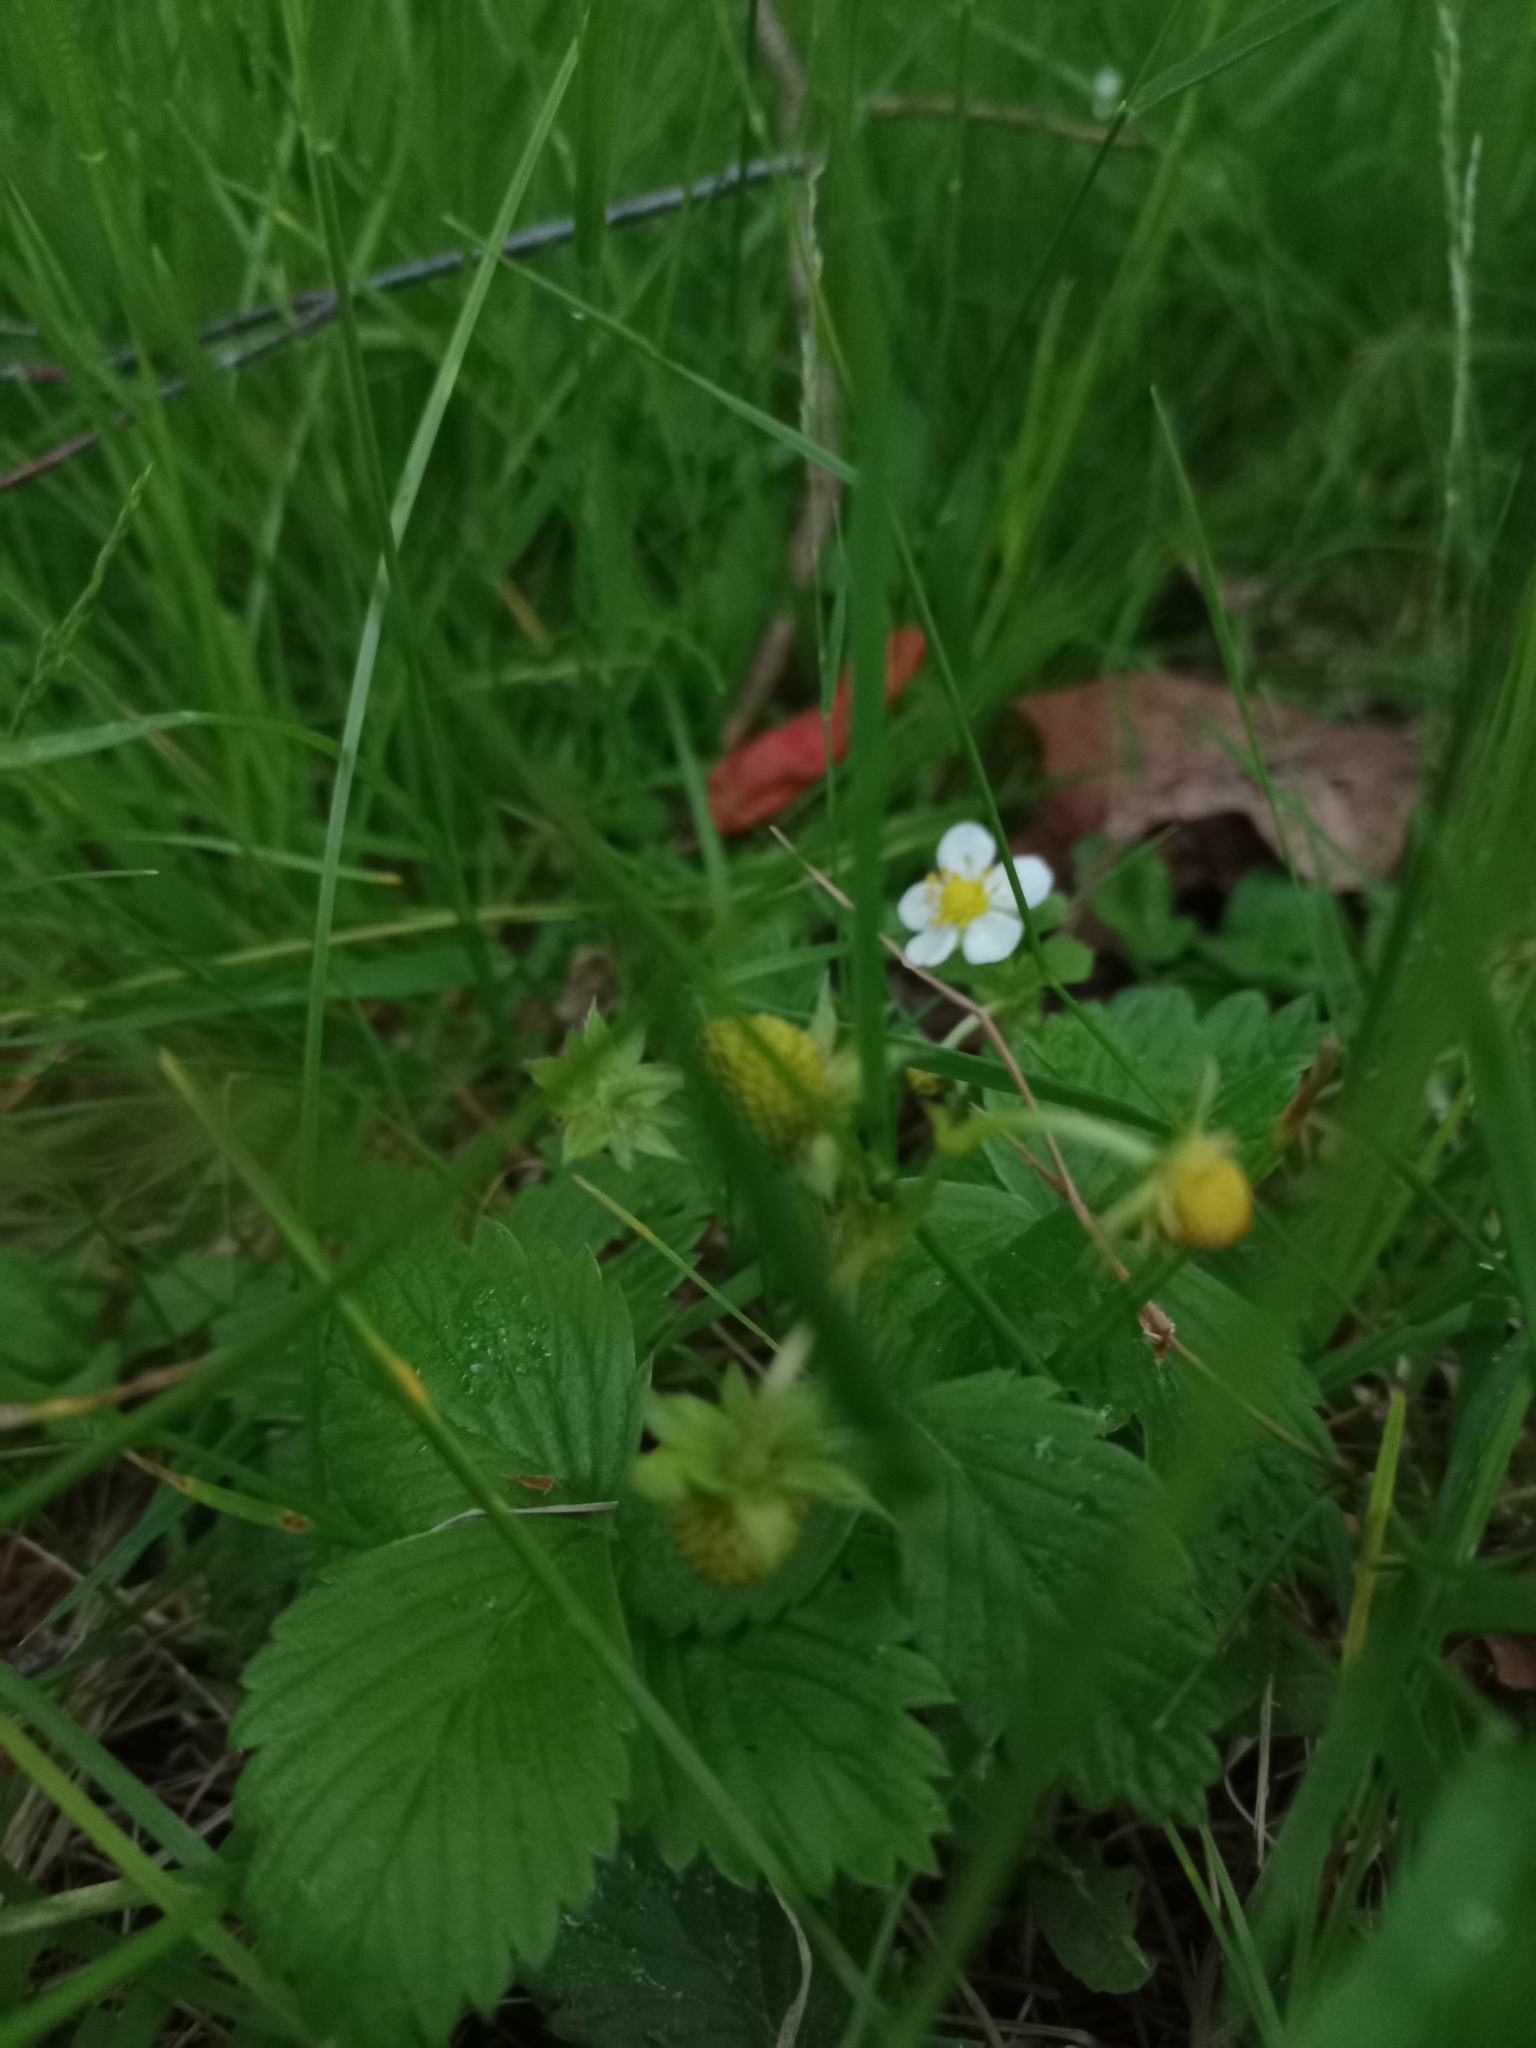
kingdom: Plantae
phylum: Tracheophyta
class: Magnoliopsida
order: Rosales
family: Rosaceae
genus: Fragaria
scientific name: Fragaria vesca
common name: Wild strawberry
